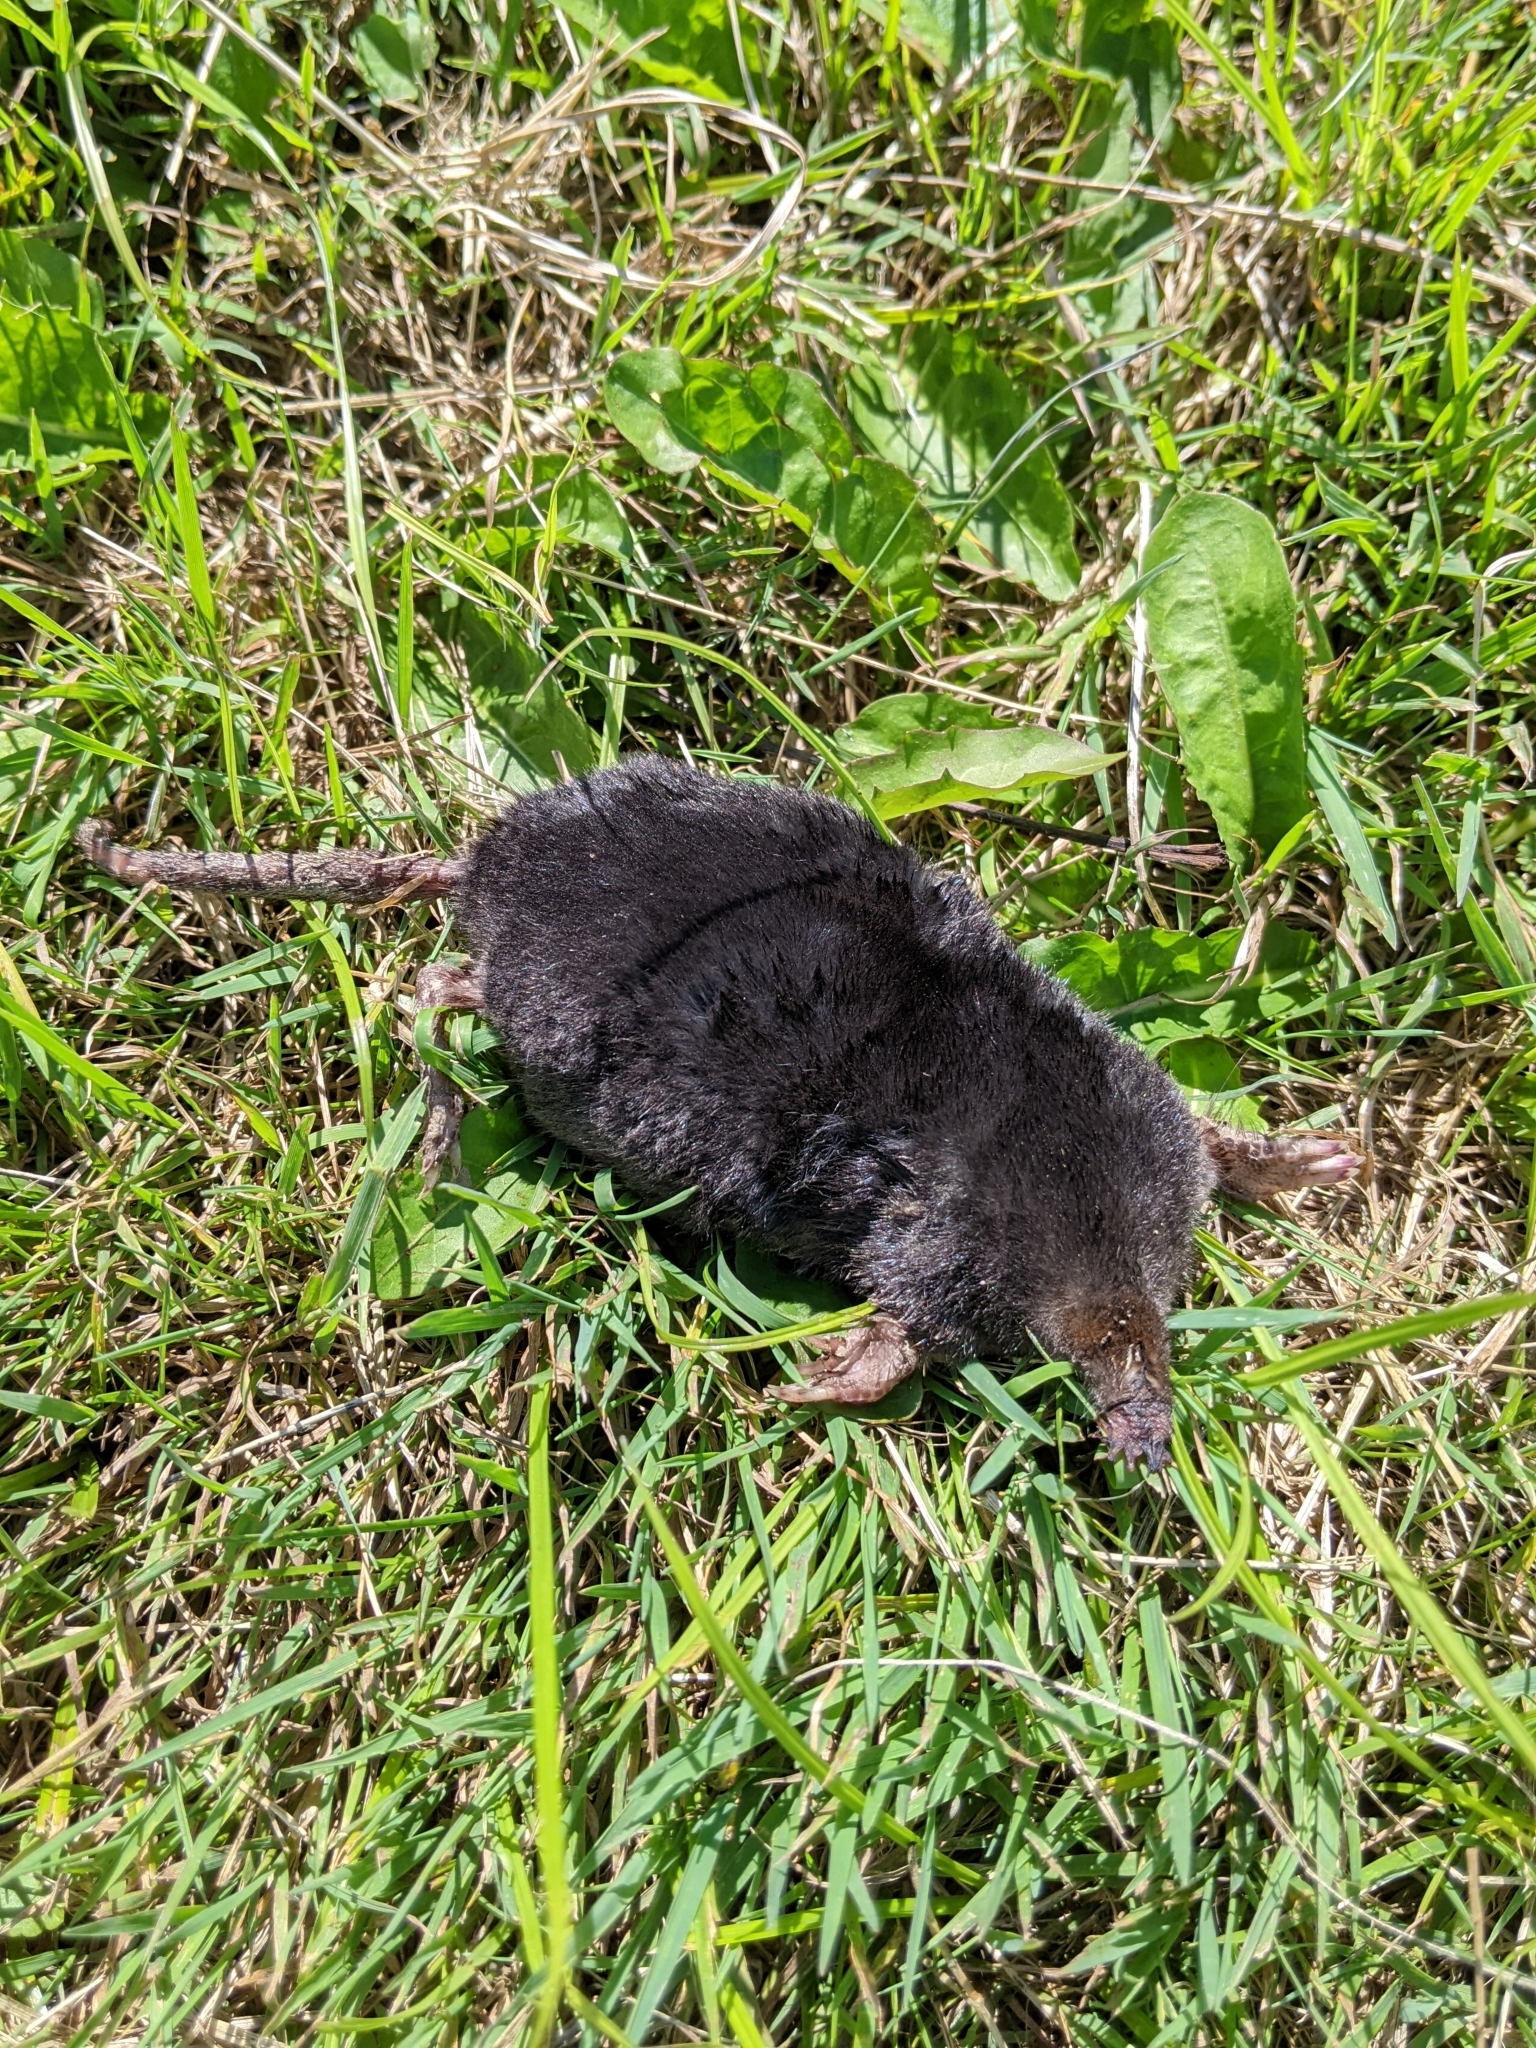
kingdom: Animalia
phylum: Chordata
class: Mammalia
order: Soricomorpha
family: Talpidae
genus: Condylura
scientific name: Condylura cristata
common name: Star-nosed mole
